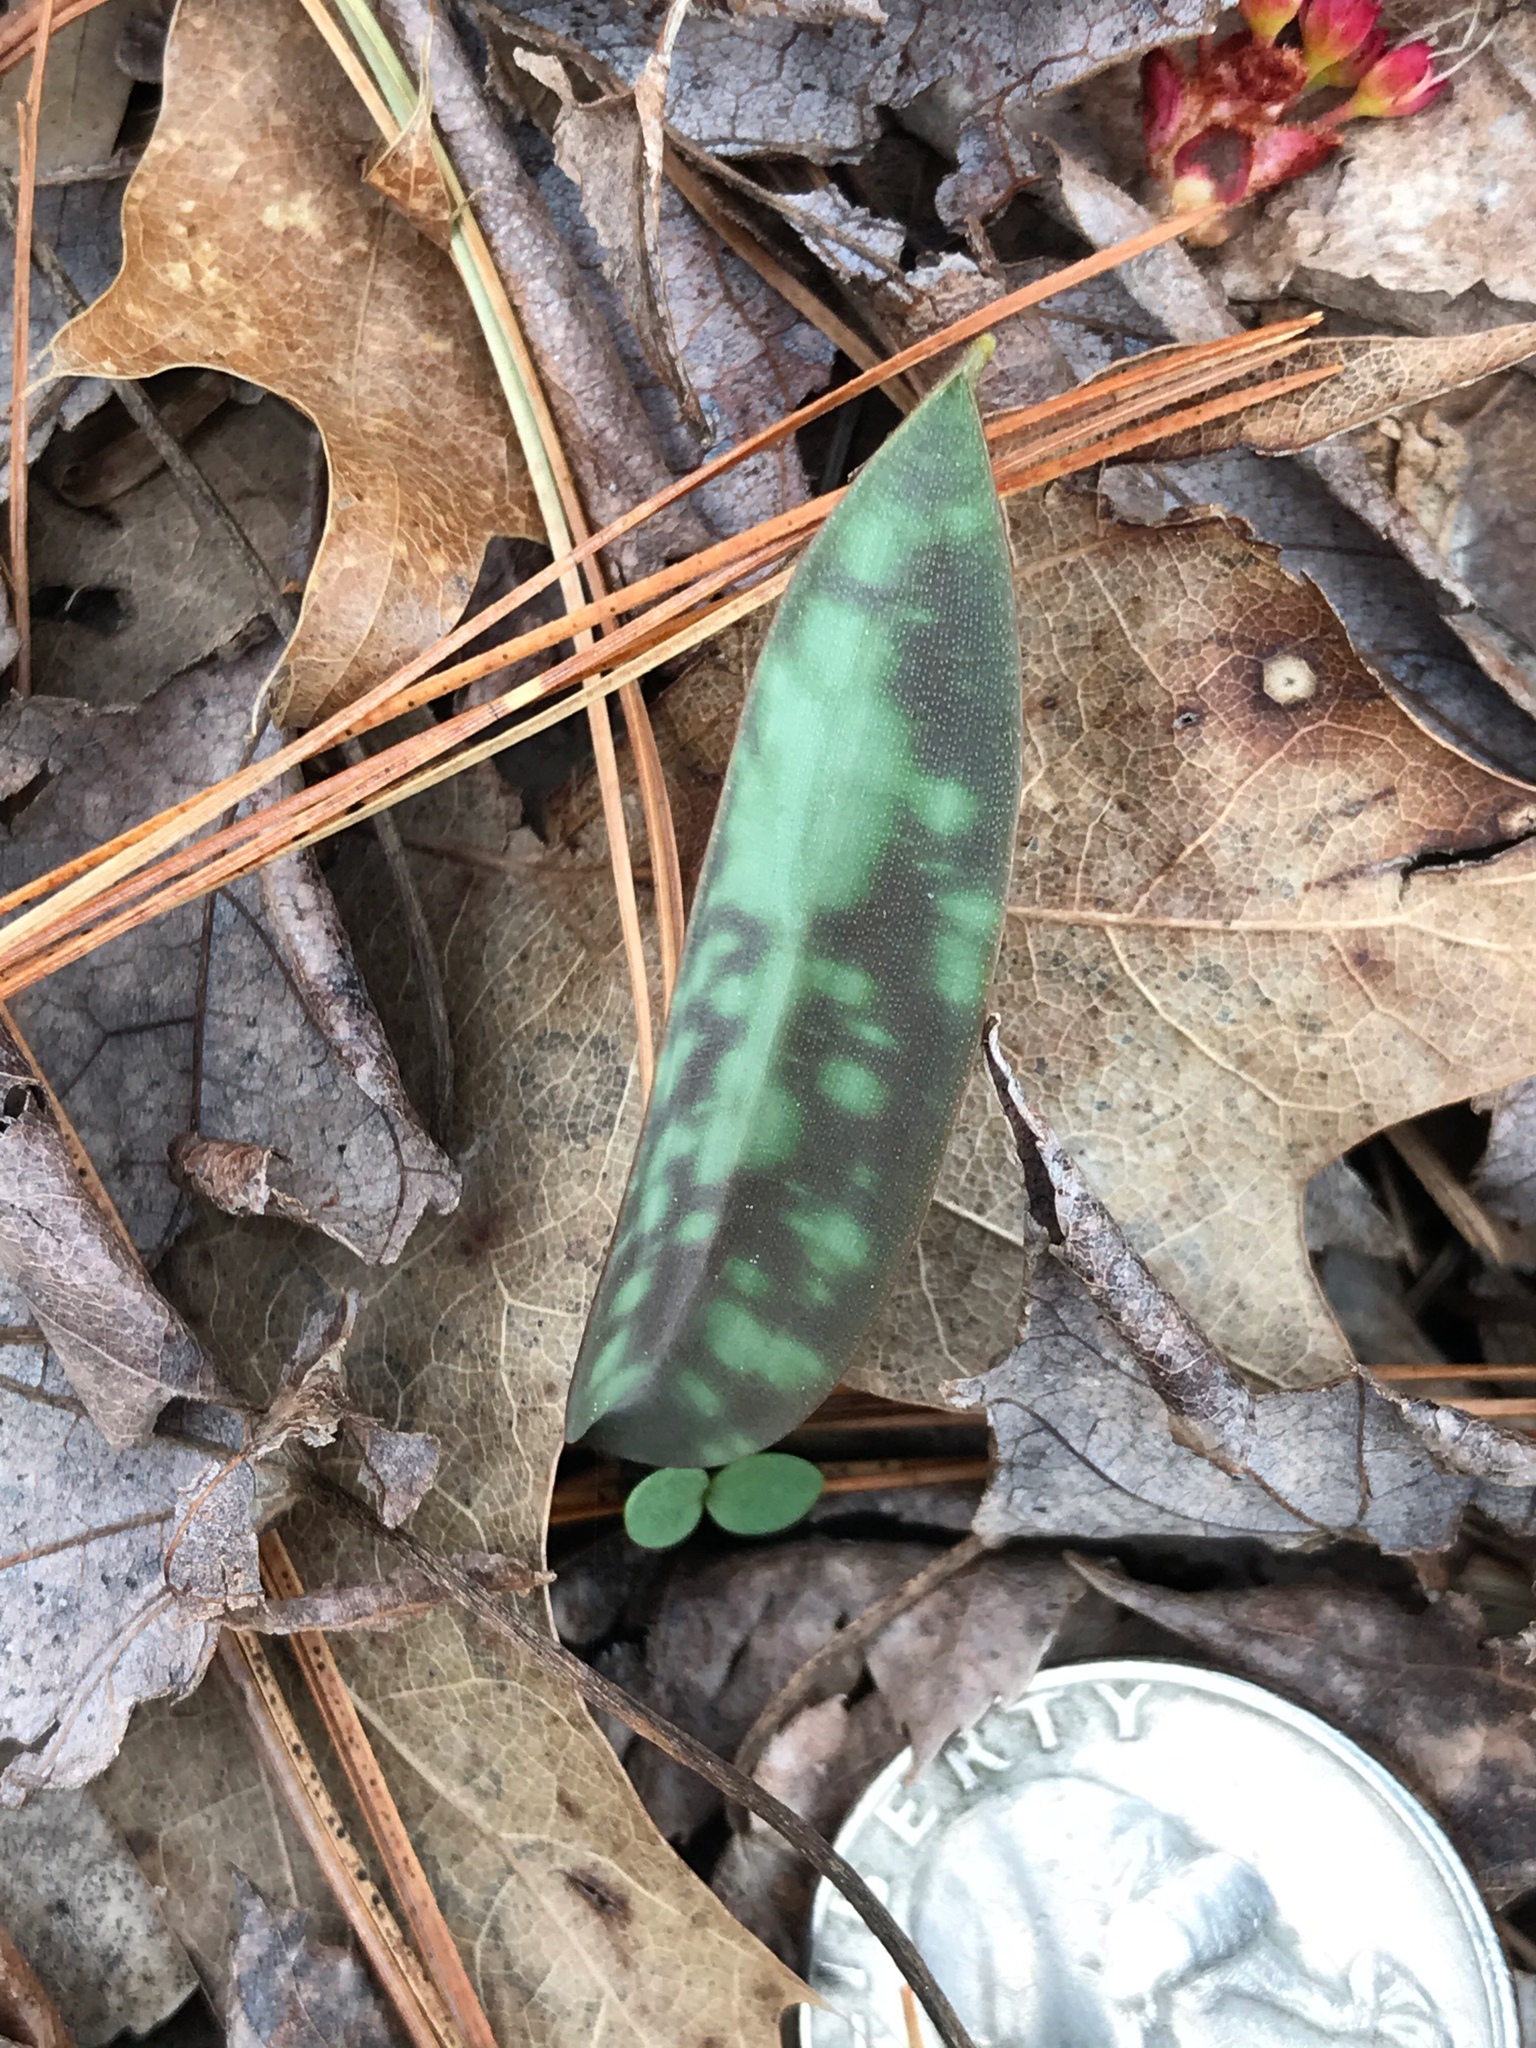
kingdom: Plantae
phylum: Tracheophyta
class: Liliopsida
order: Liliales
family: Liliaceae
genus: Erythronium
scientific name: Erythronium americanum
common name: Yellow adder's-tongue
